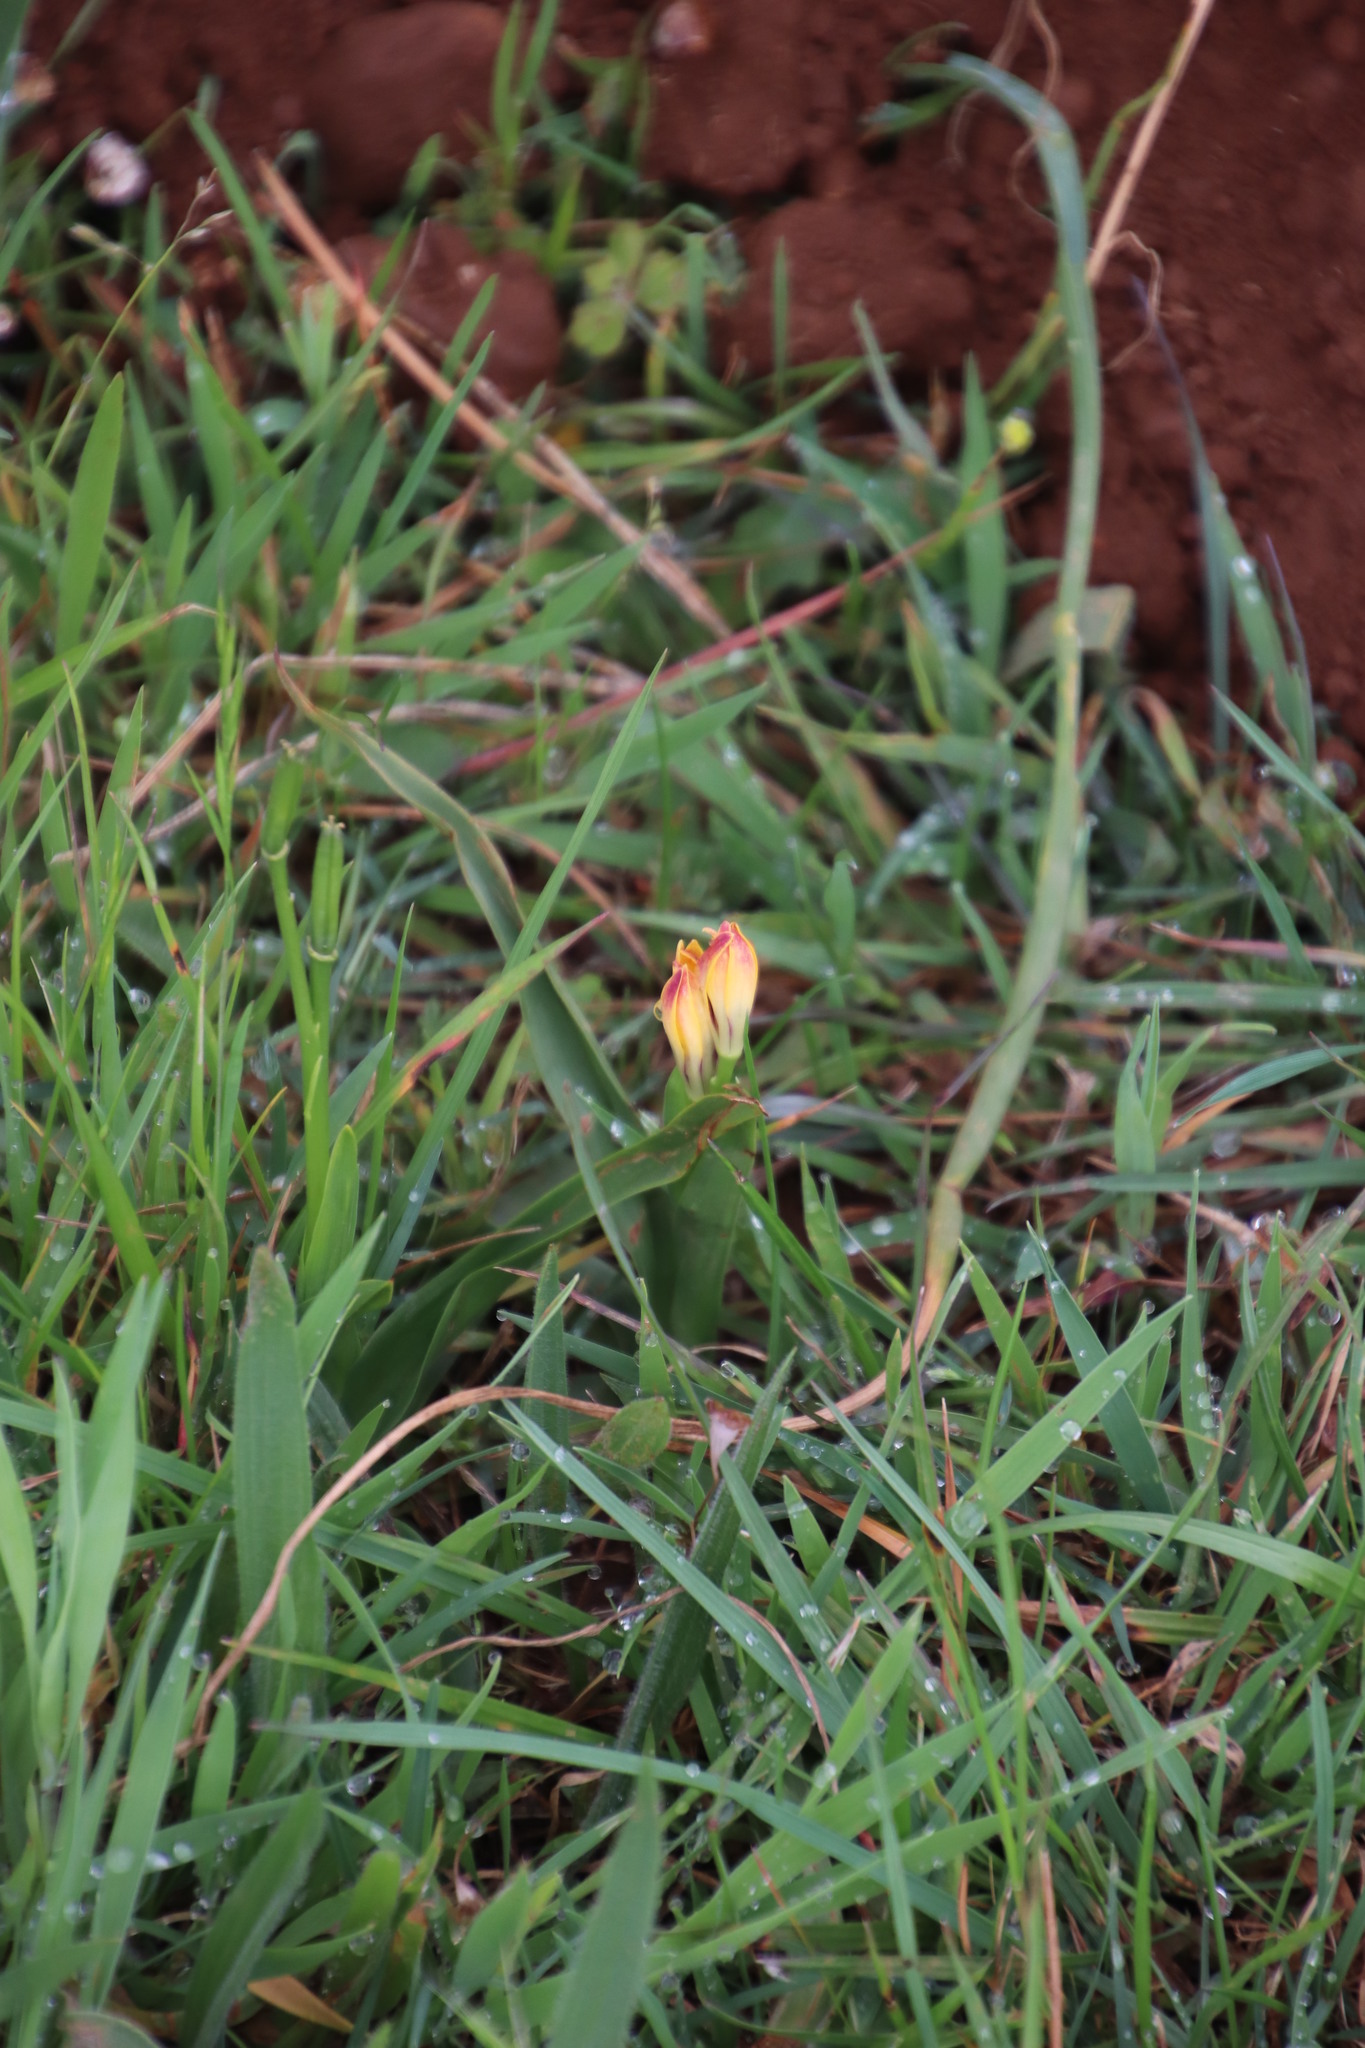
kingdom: Plantae
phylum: Tracheophyta
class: Liliopsida
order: Liliales
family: Colchicaceae
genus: Baeometra
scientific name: Baeometra uniflora
